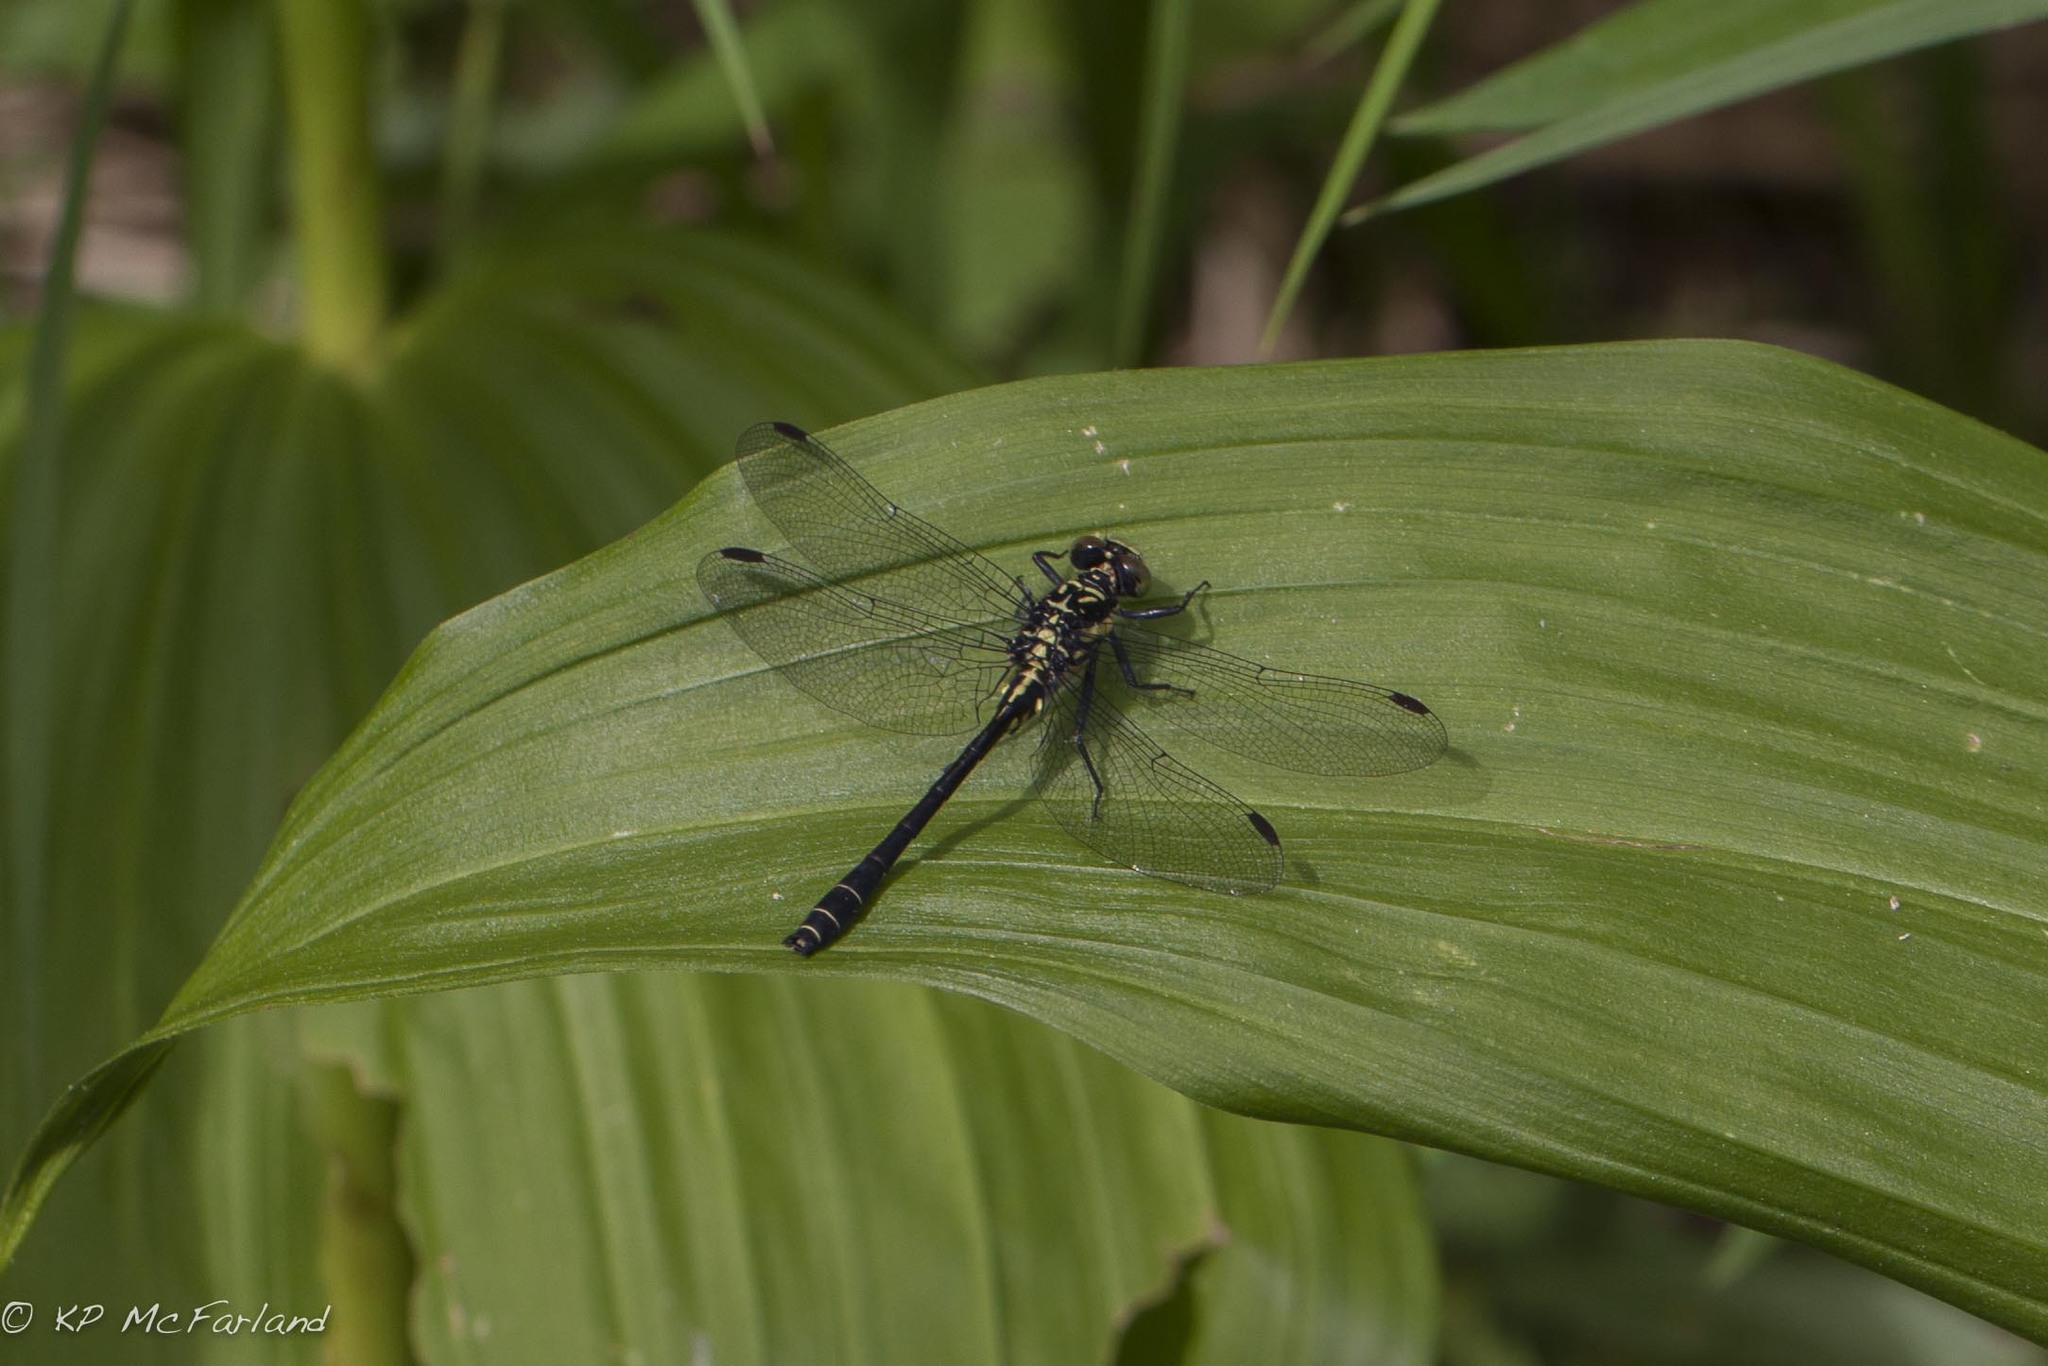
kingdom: Animalia
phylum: Arthropoda
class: Insecta
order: Odonata
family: Gomphidae
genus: Lanthus
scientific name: Lanthus parvulus
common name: Northern pygmy clubtail
